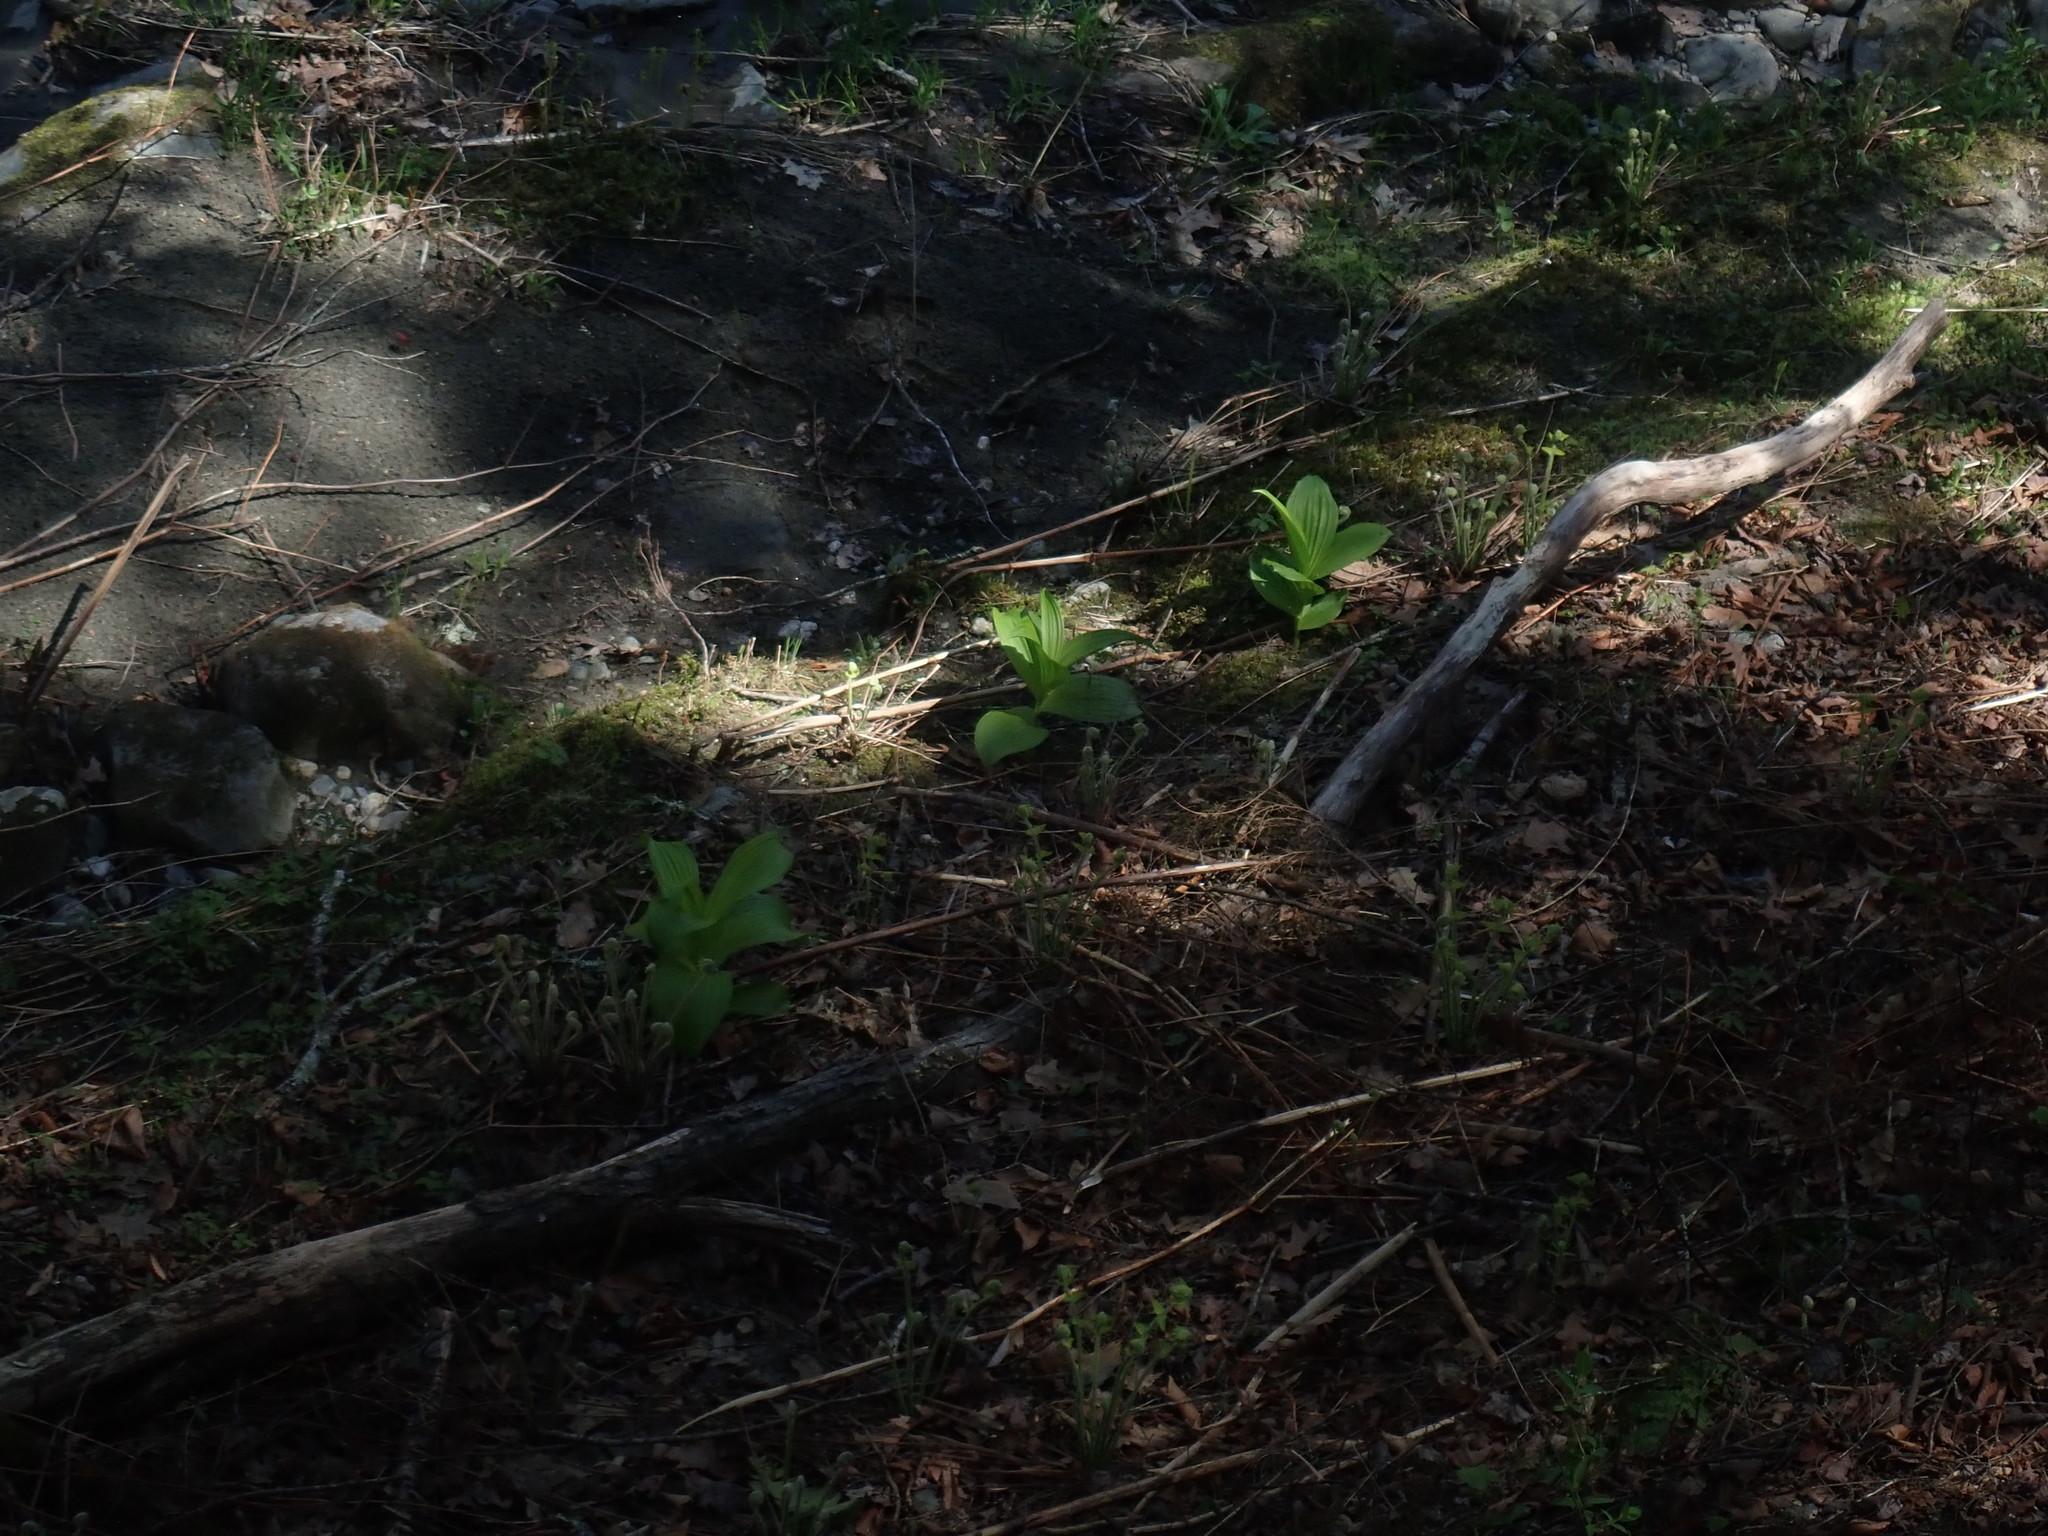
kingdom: Plantae
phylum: Tracheophyta
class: Liliopsida
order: Liliales
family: Melanthiaceae
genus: Veratrum
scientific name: Veratrum viride
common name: American false hellebore
